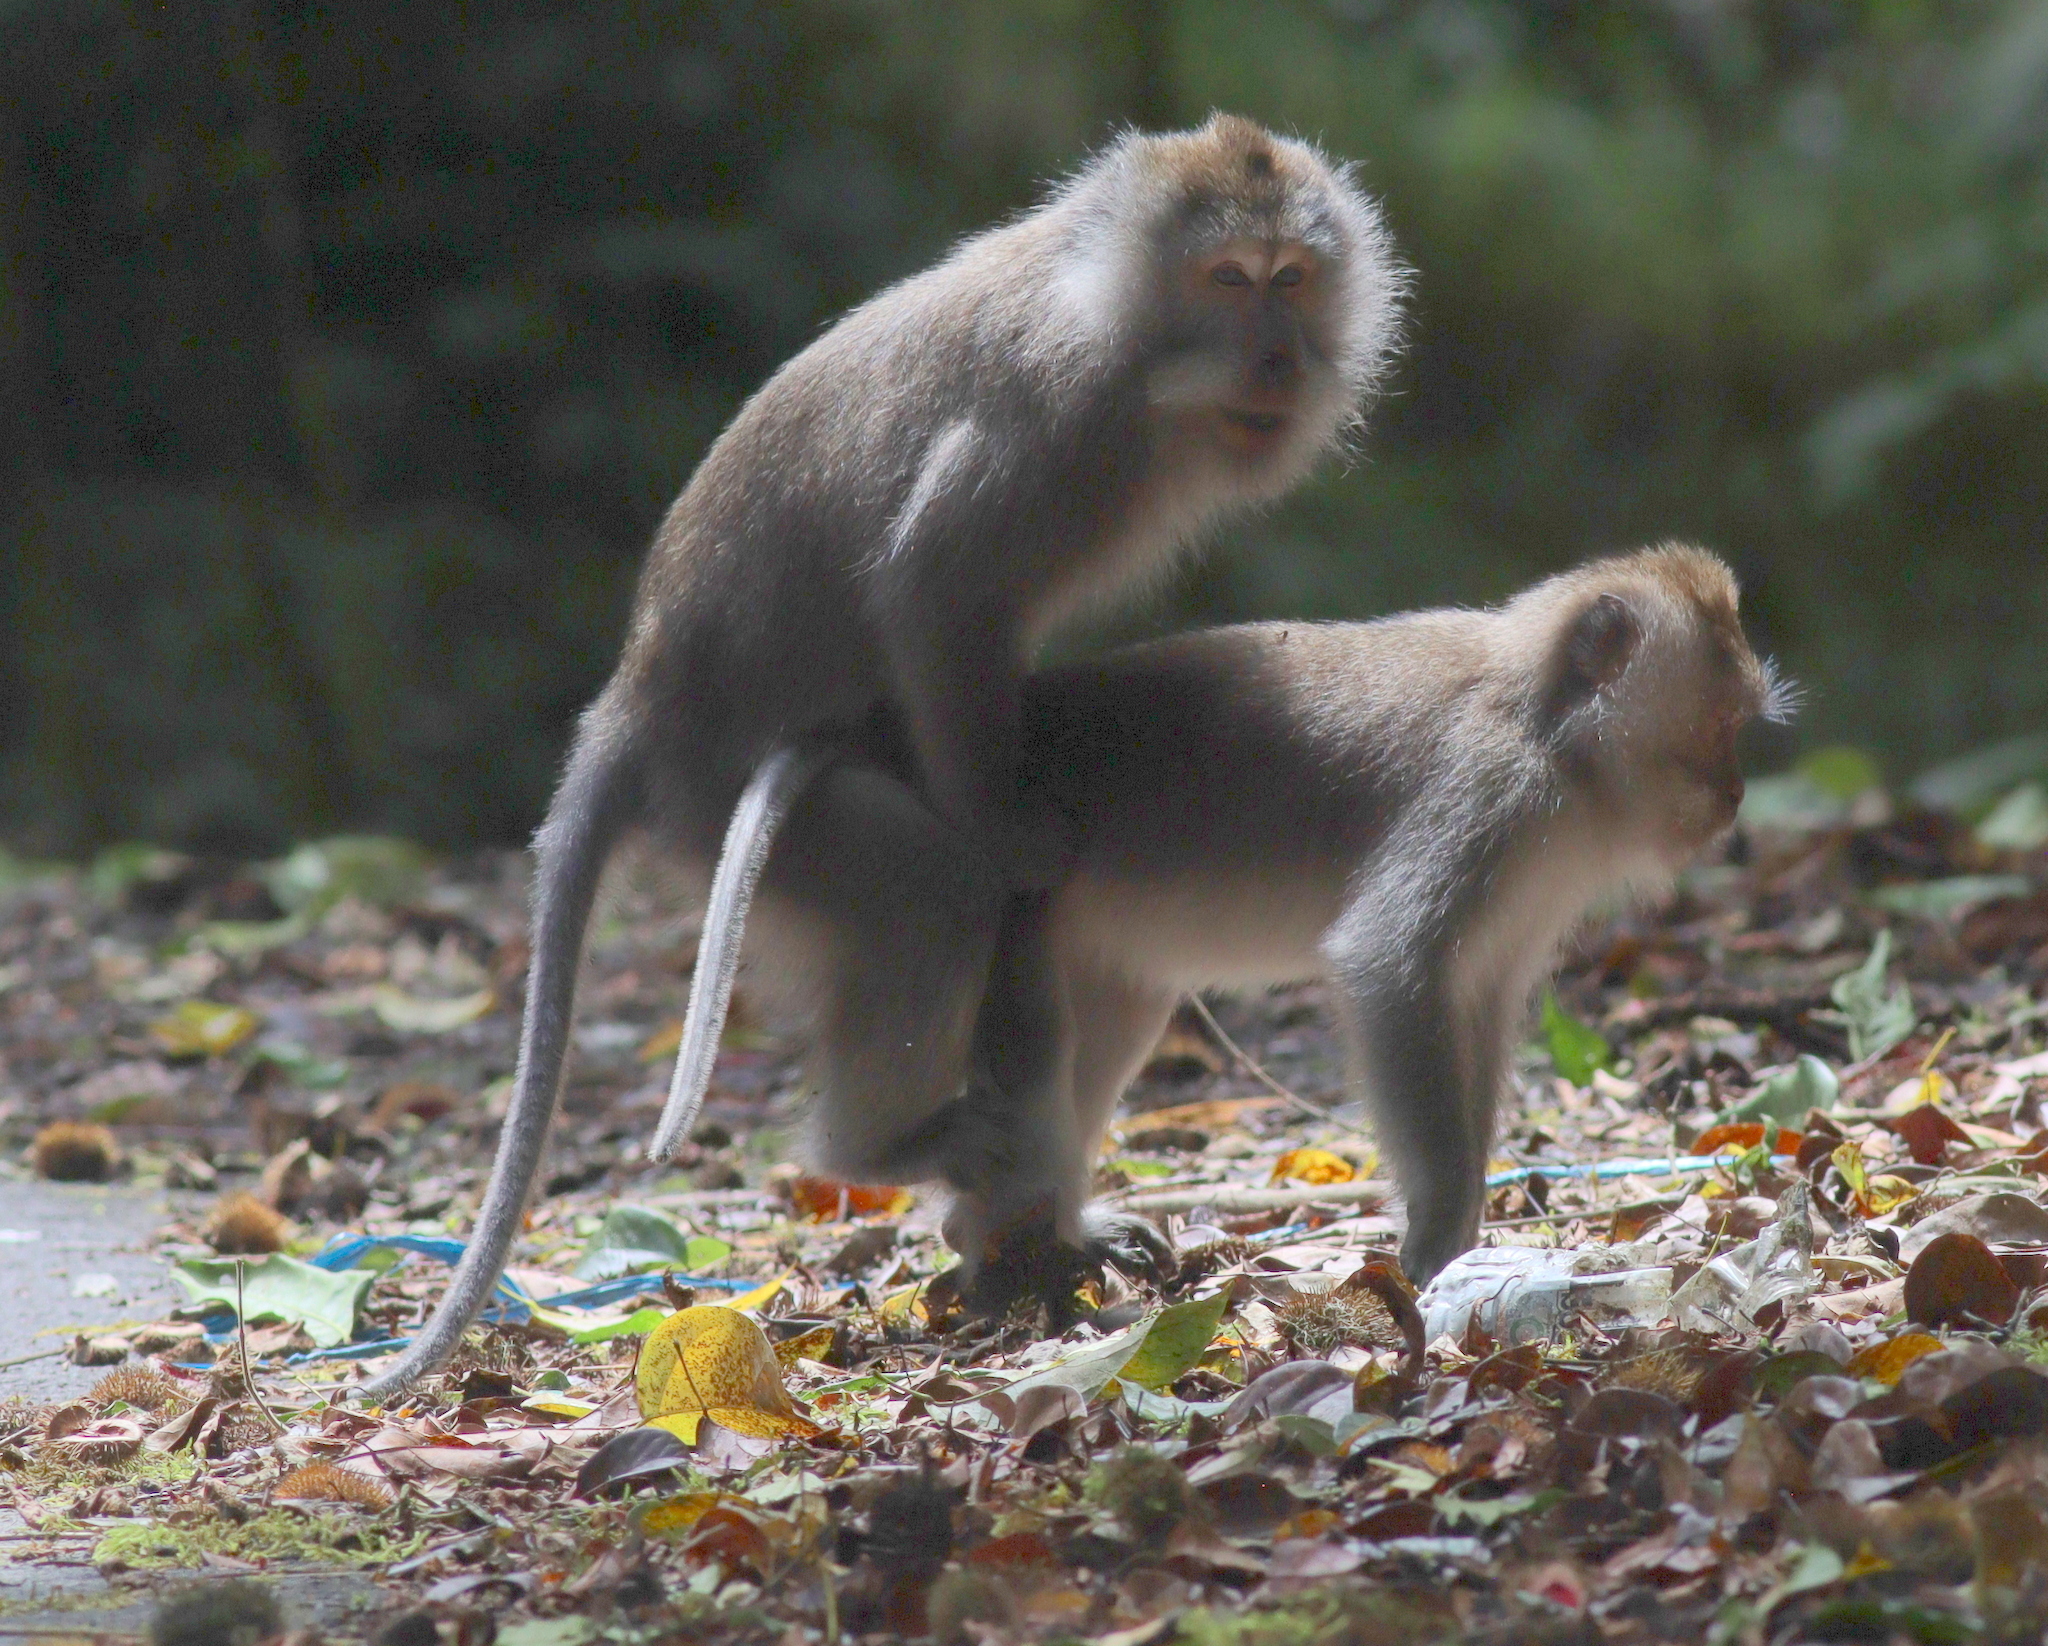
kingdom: Animalia
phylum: Chordata
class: Mammalia
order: Primates
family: Cercopithecidae
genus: Macaca
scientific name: Macaca fascicularis
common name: Crab-eating macaque
